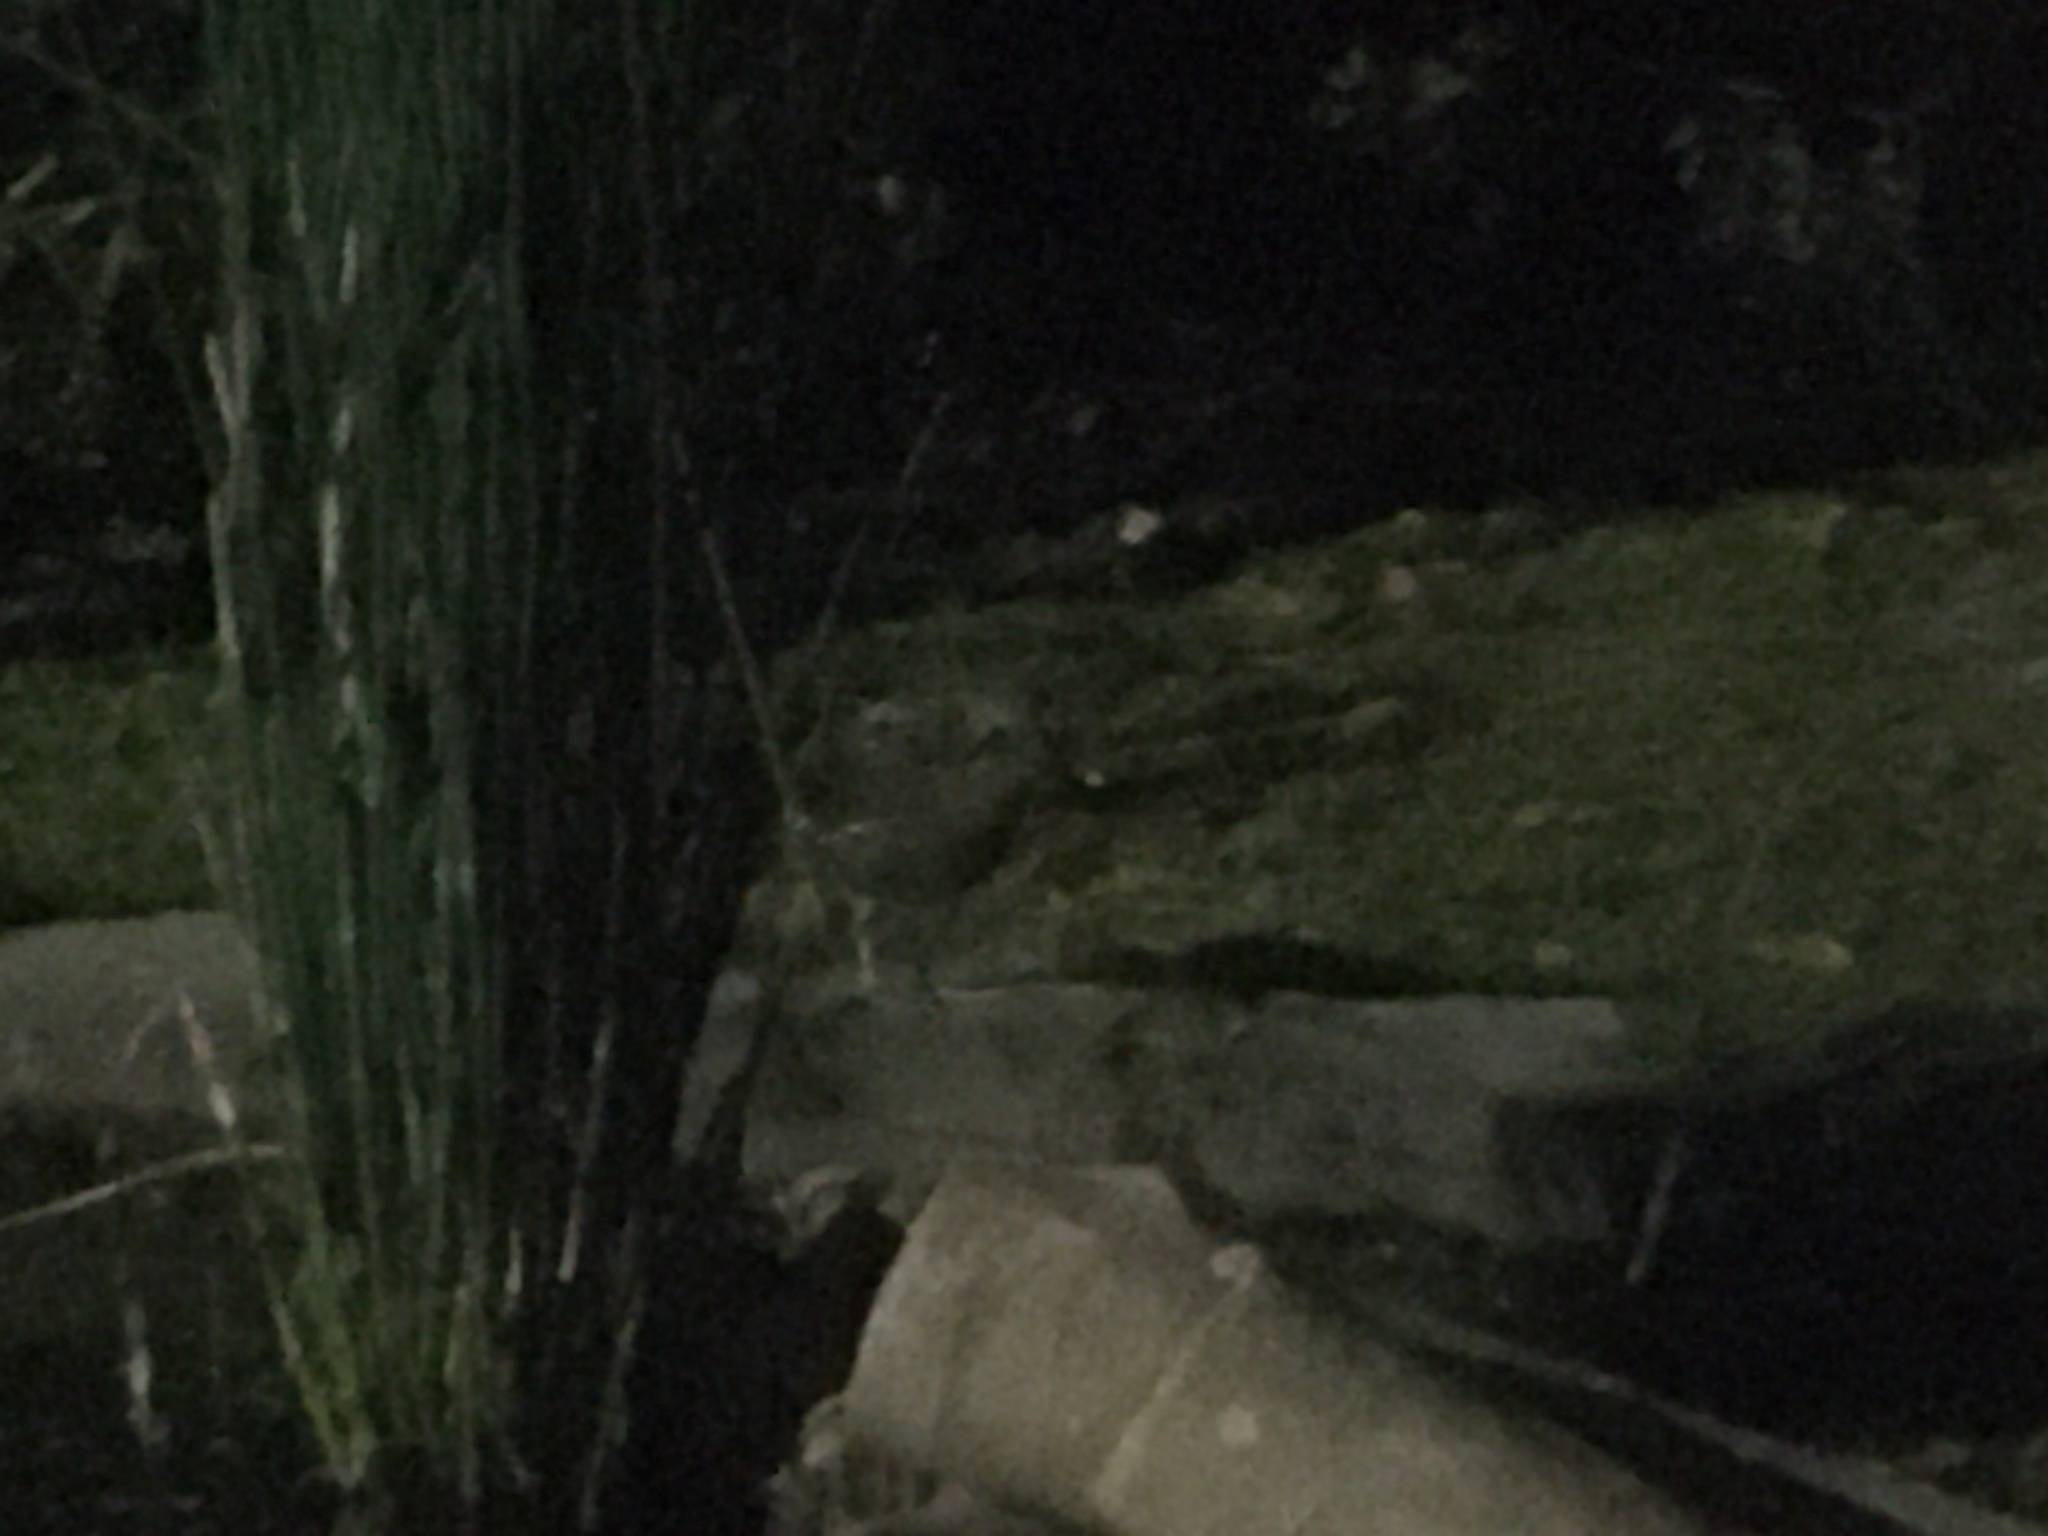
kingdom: Animalia
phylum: Chordata
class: Aves
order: Gruiformes
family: Rallidae
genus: Gallinula
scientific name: Gallinula chloropus
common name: Common moorhen
